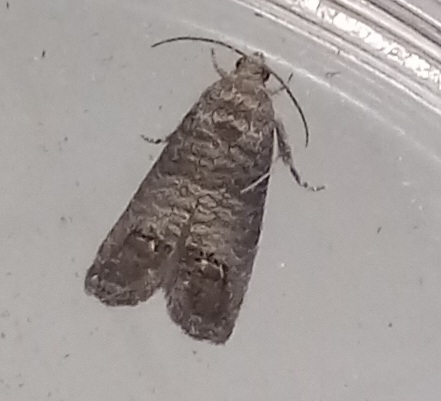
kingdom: Animalia
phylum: Arthropoda
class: Insecta
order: Lepidoptera
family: Tortricidae
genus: Cydia
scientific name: Cydia pomonella
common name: Codling moth
